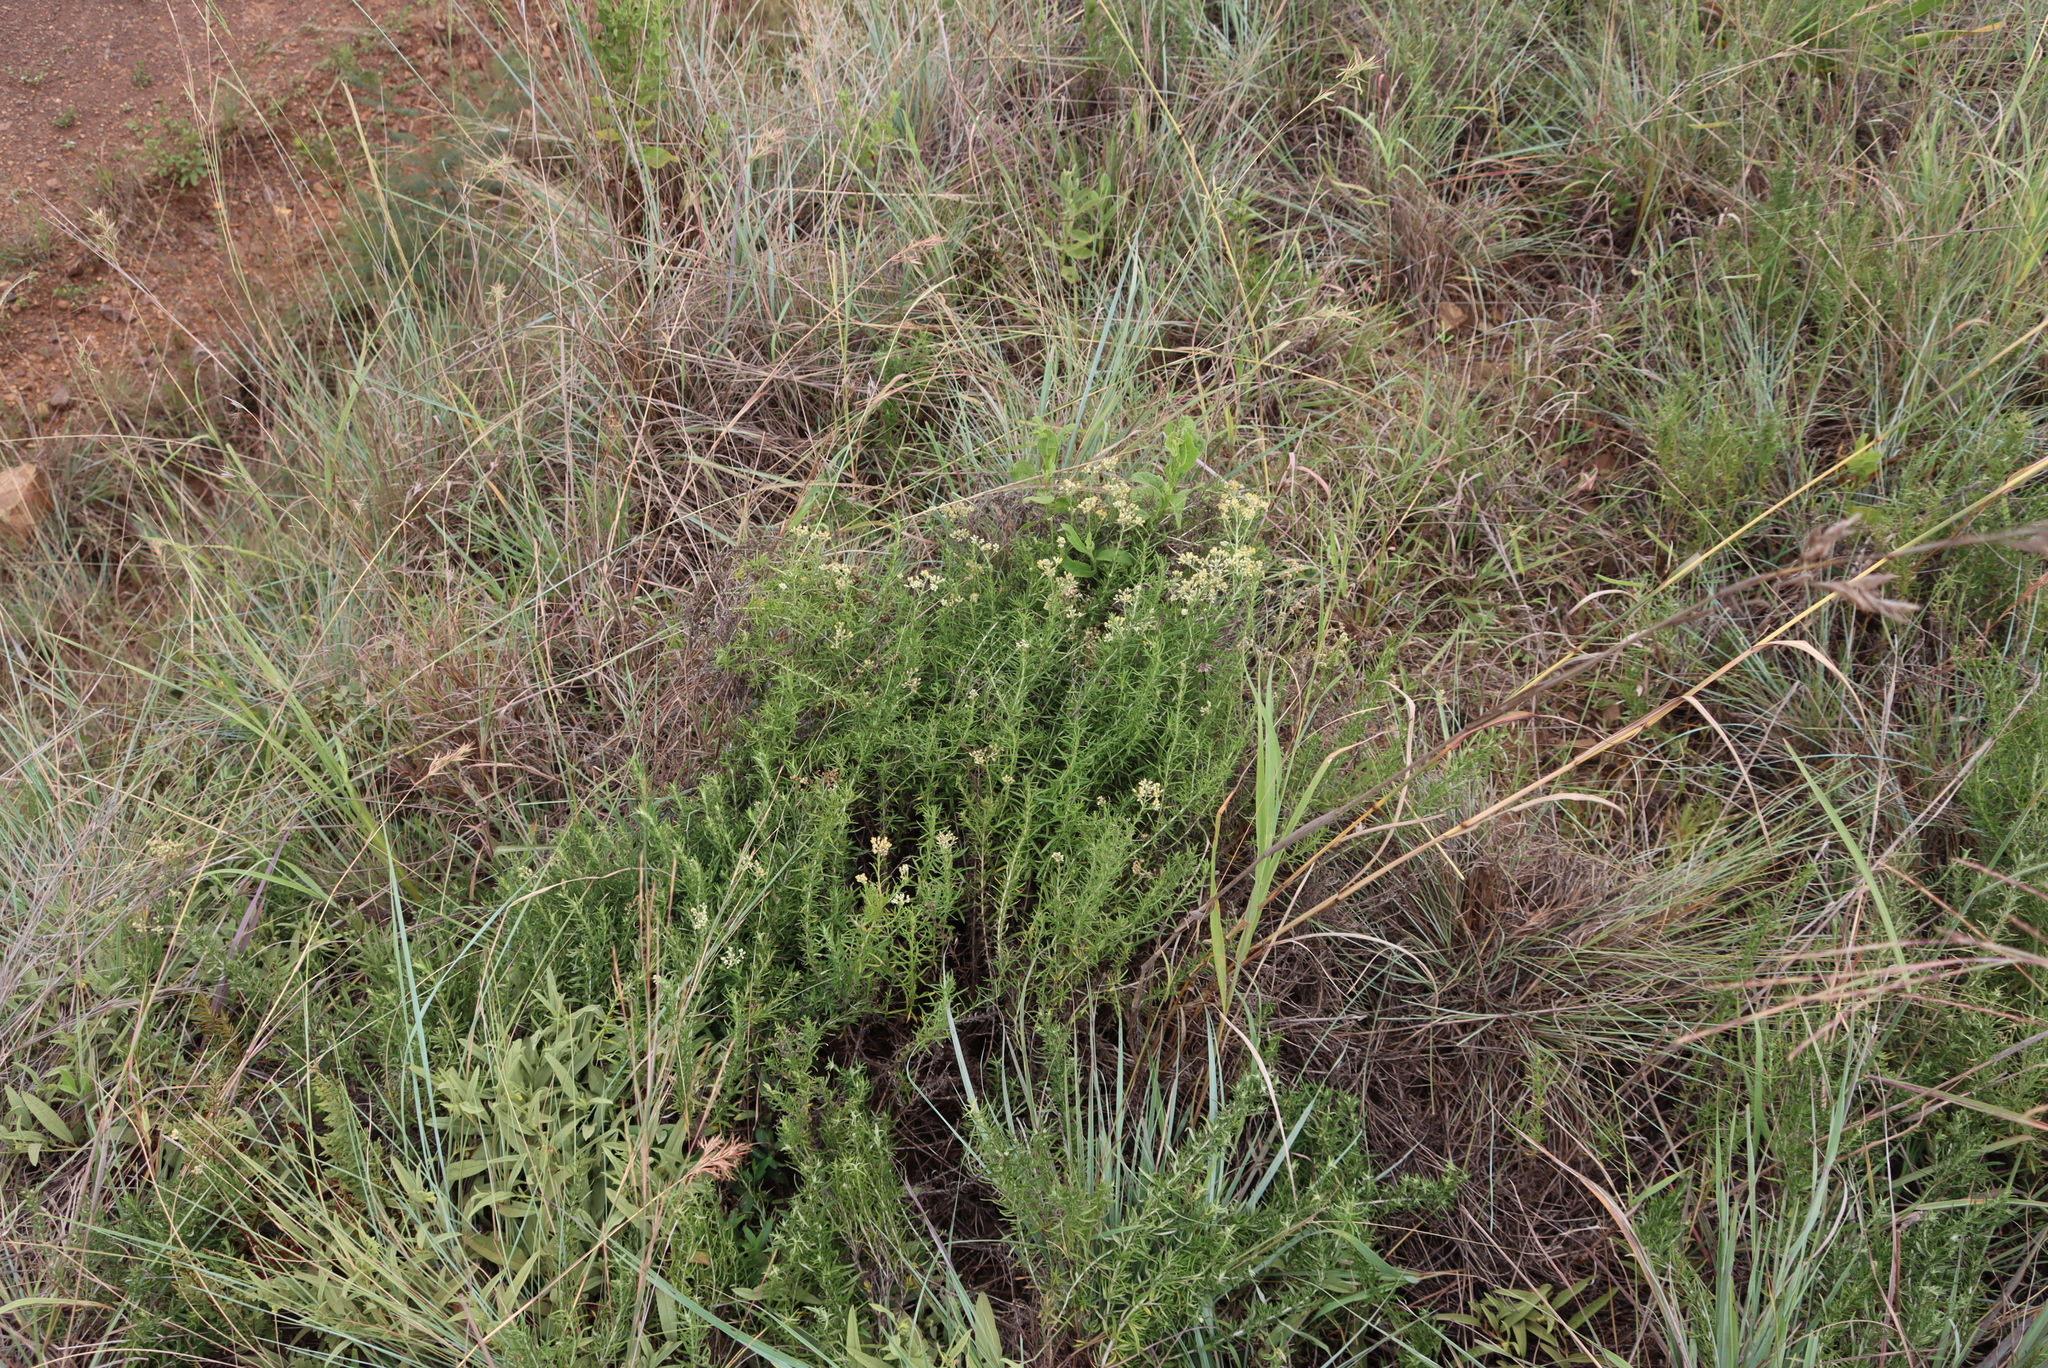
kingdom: Plantae
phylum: Tracheophyta
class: Magnoliopsida
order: Asterales
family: Asteraceae
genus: Helichrysum
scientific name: Helichrysum rugulosum
